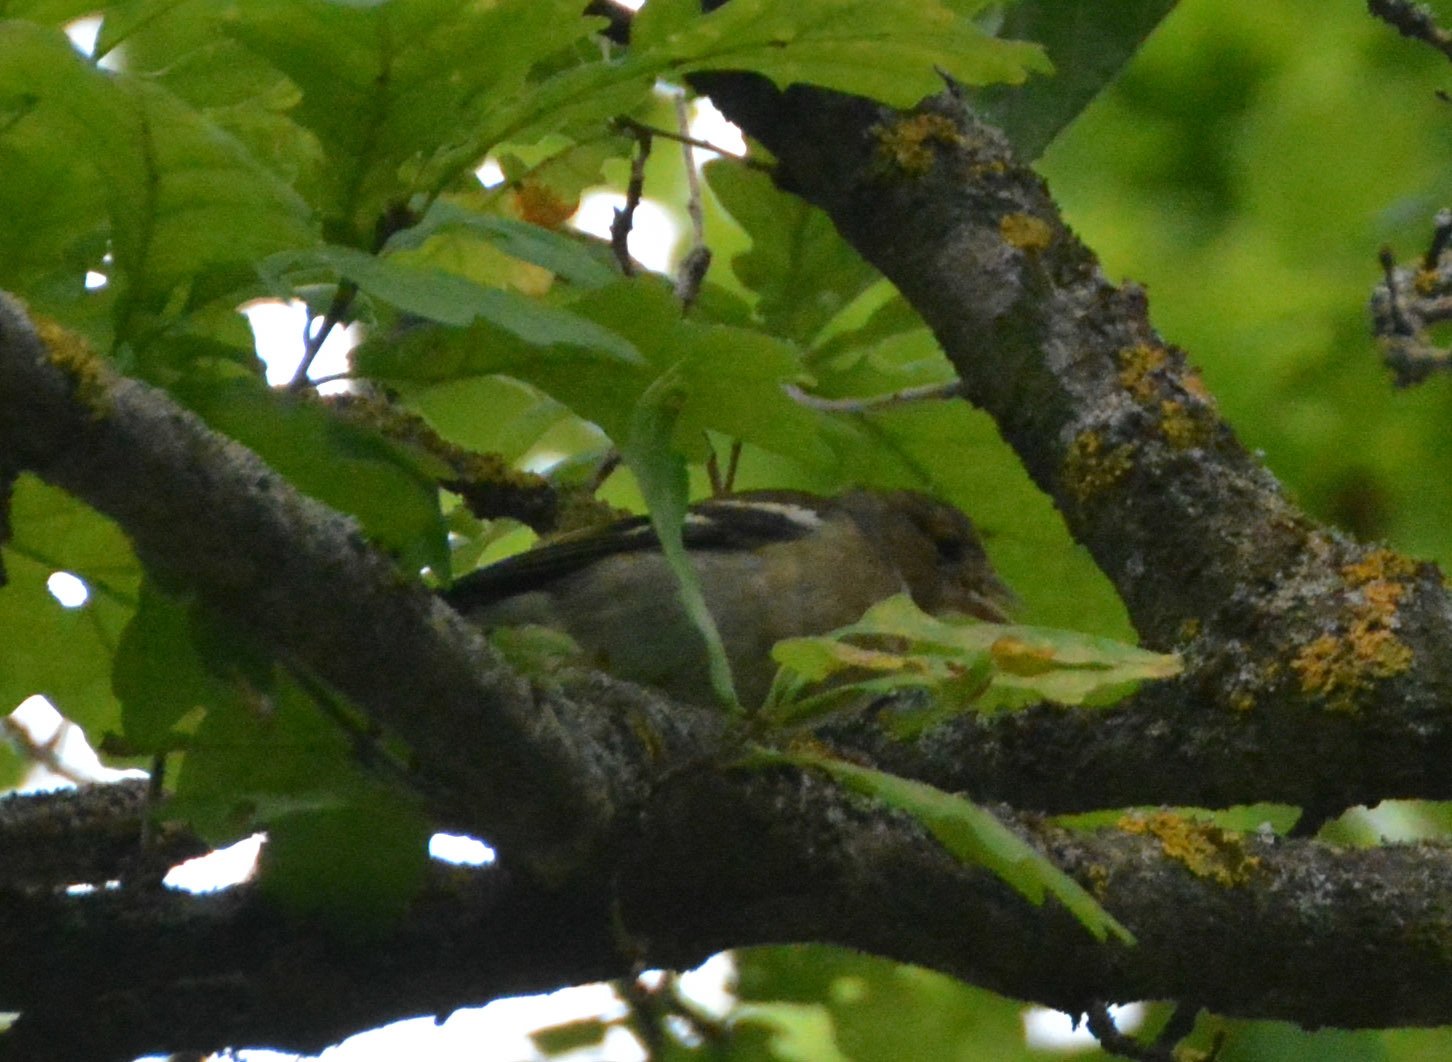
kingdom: Animalia
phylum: Chordata
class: Aves
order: Passeriformes
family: Fringillidae
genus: Fringilla
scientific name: Fringilla coelebs
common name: Common chaffinch
